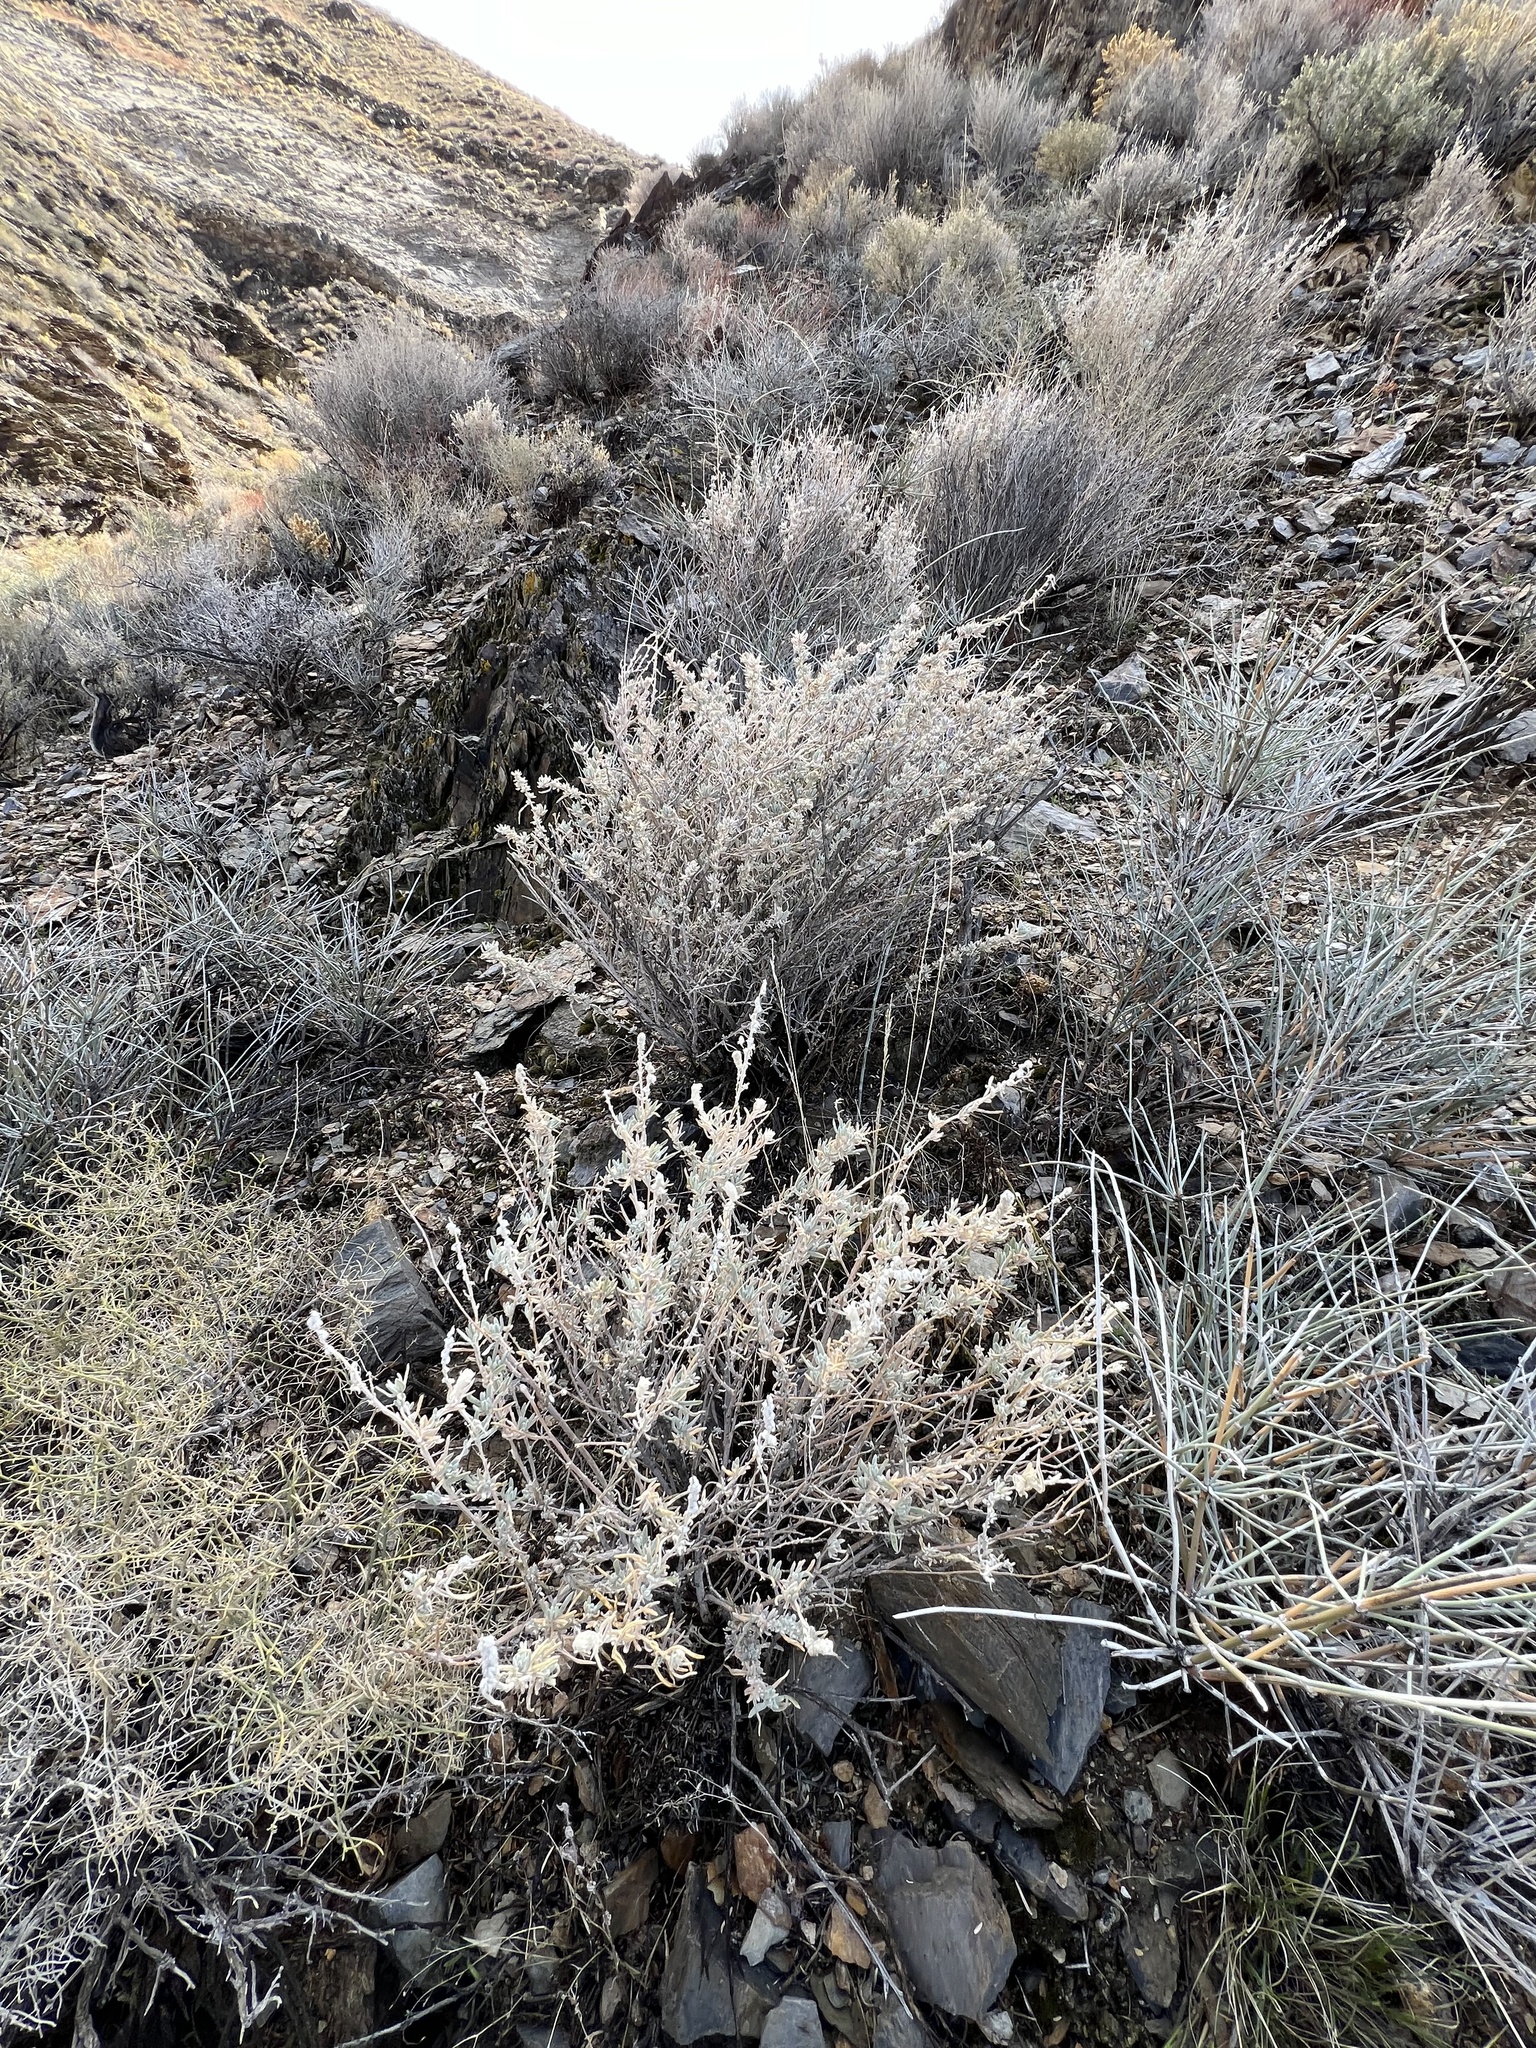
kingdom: Plantae
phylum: Tracheophyta
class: Magnoliopsida
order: Caryophyllales
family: Amaranthaceae
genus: Krascheninnikovia
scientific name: Krascheninnikovia lanata
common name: Winterfat
